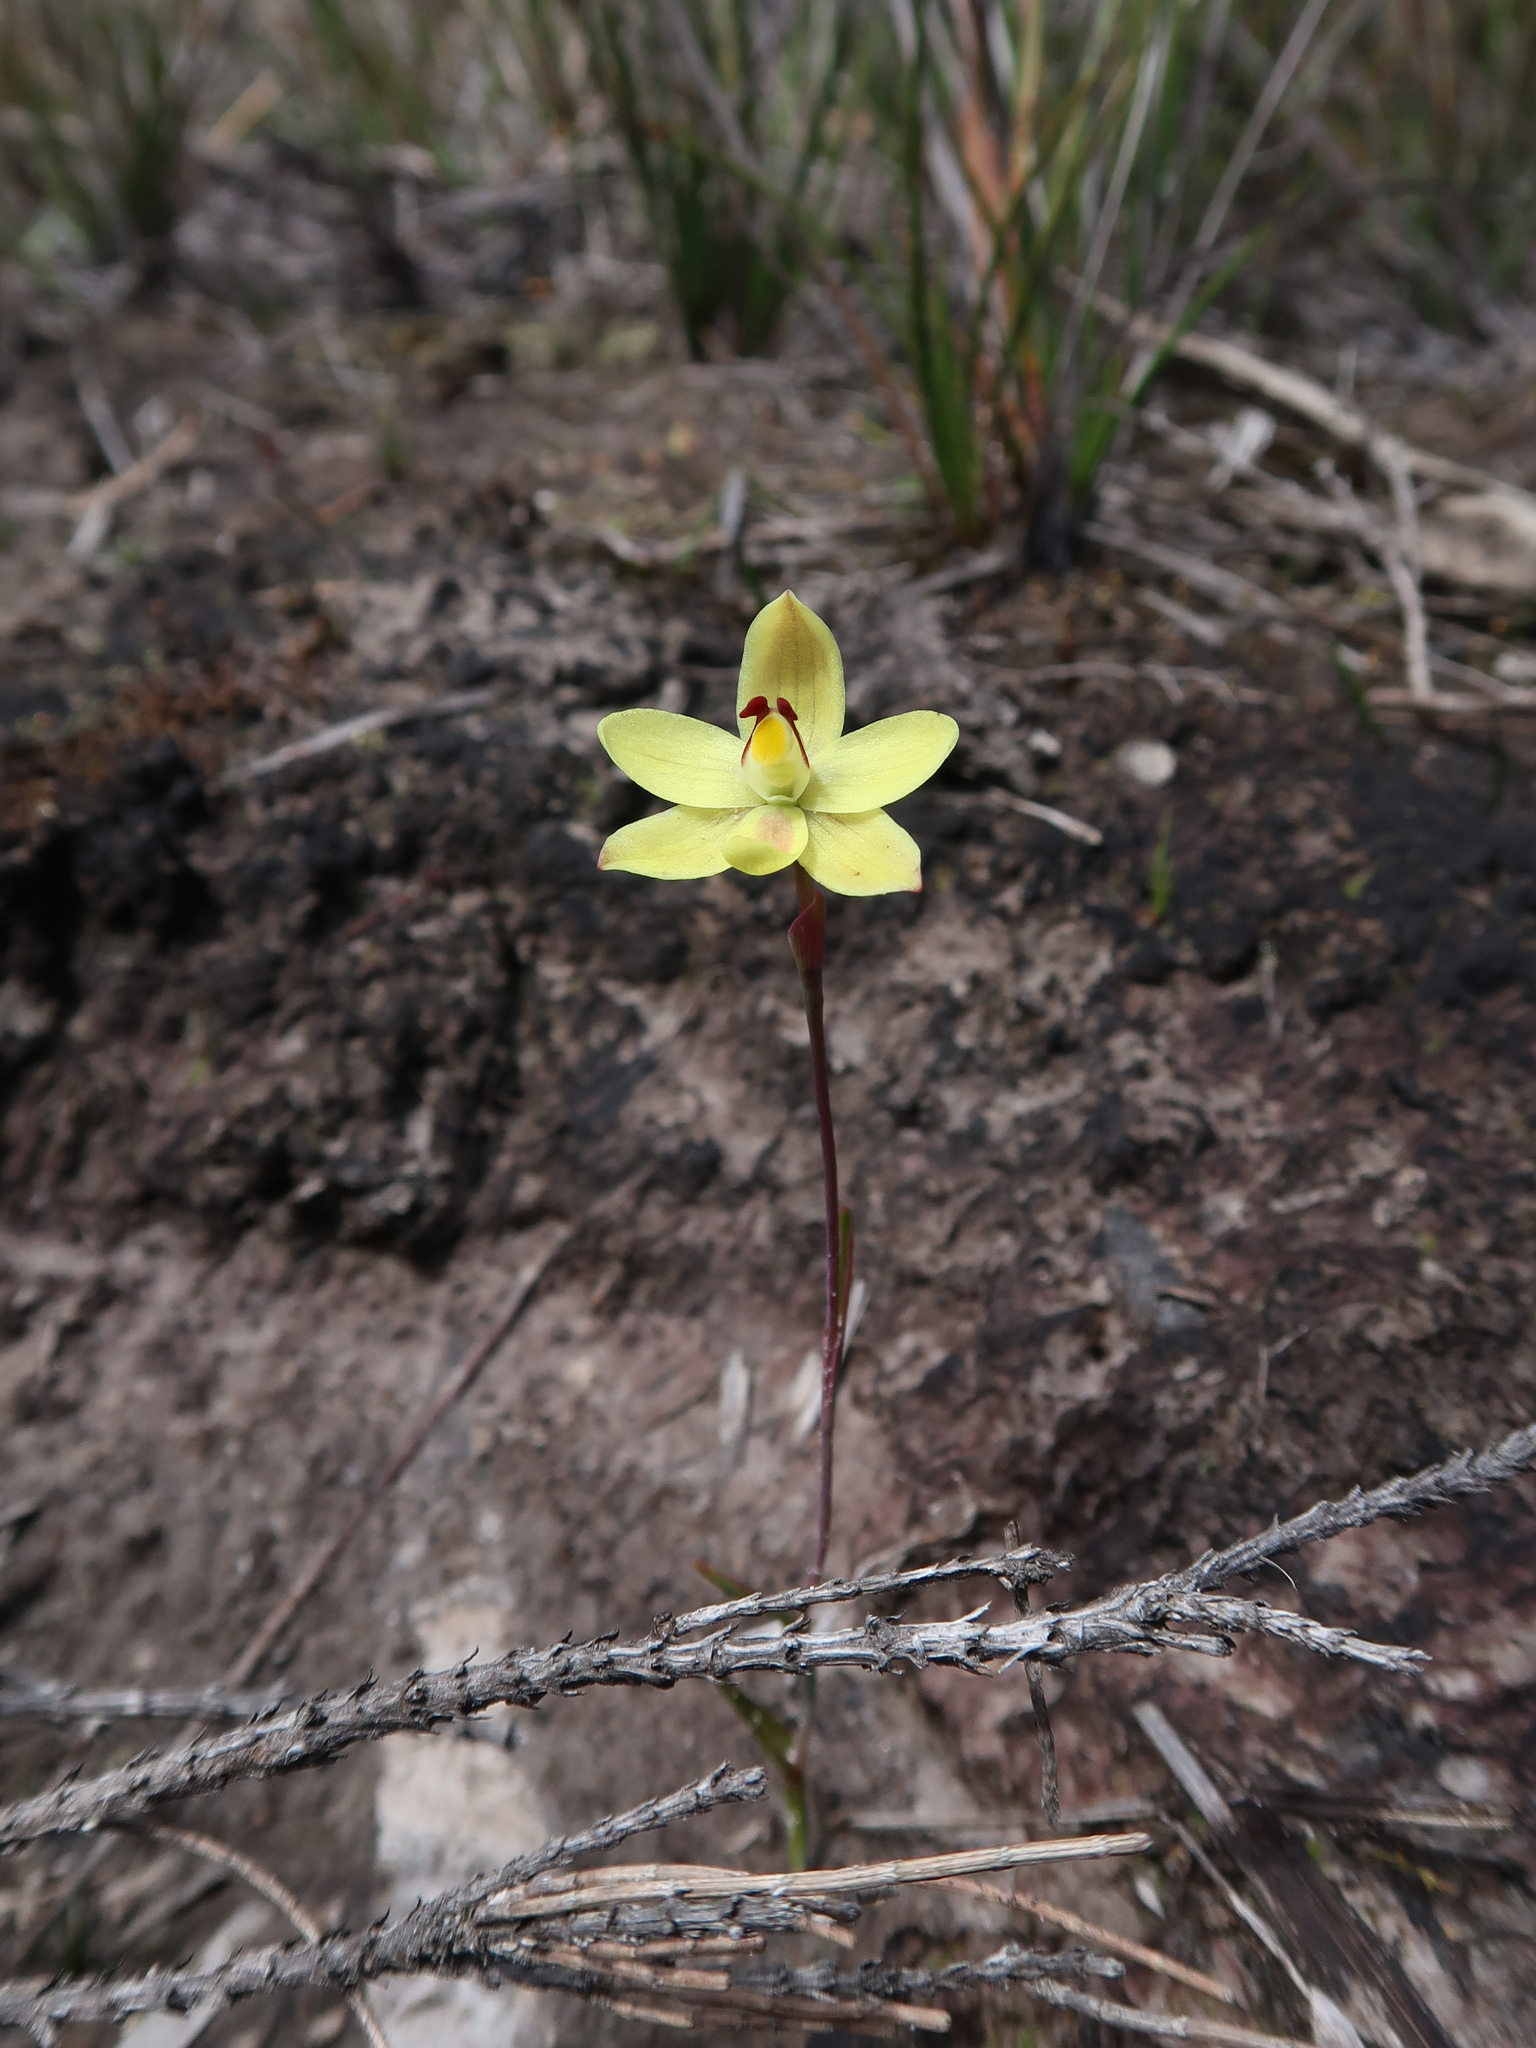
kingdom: Plantae
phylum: Tracheophyta
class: Liliopsida
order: Asparagales
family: Orchidaceae
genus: Thelymitra
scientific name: Thelymitra antennifera
